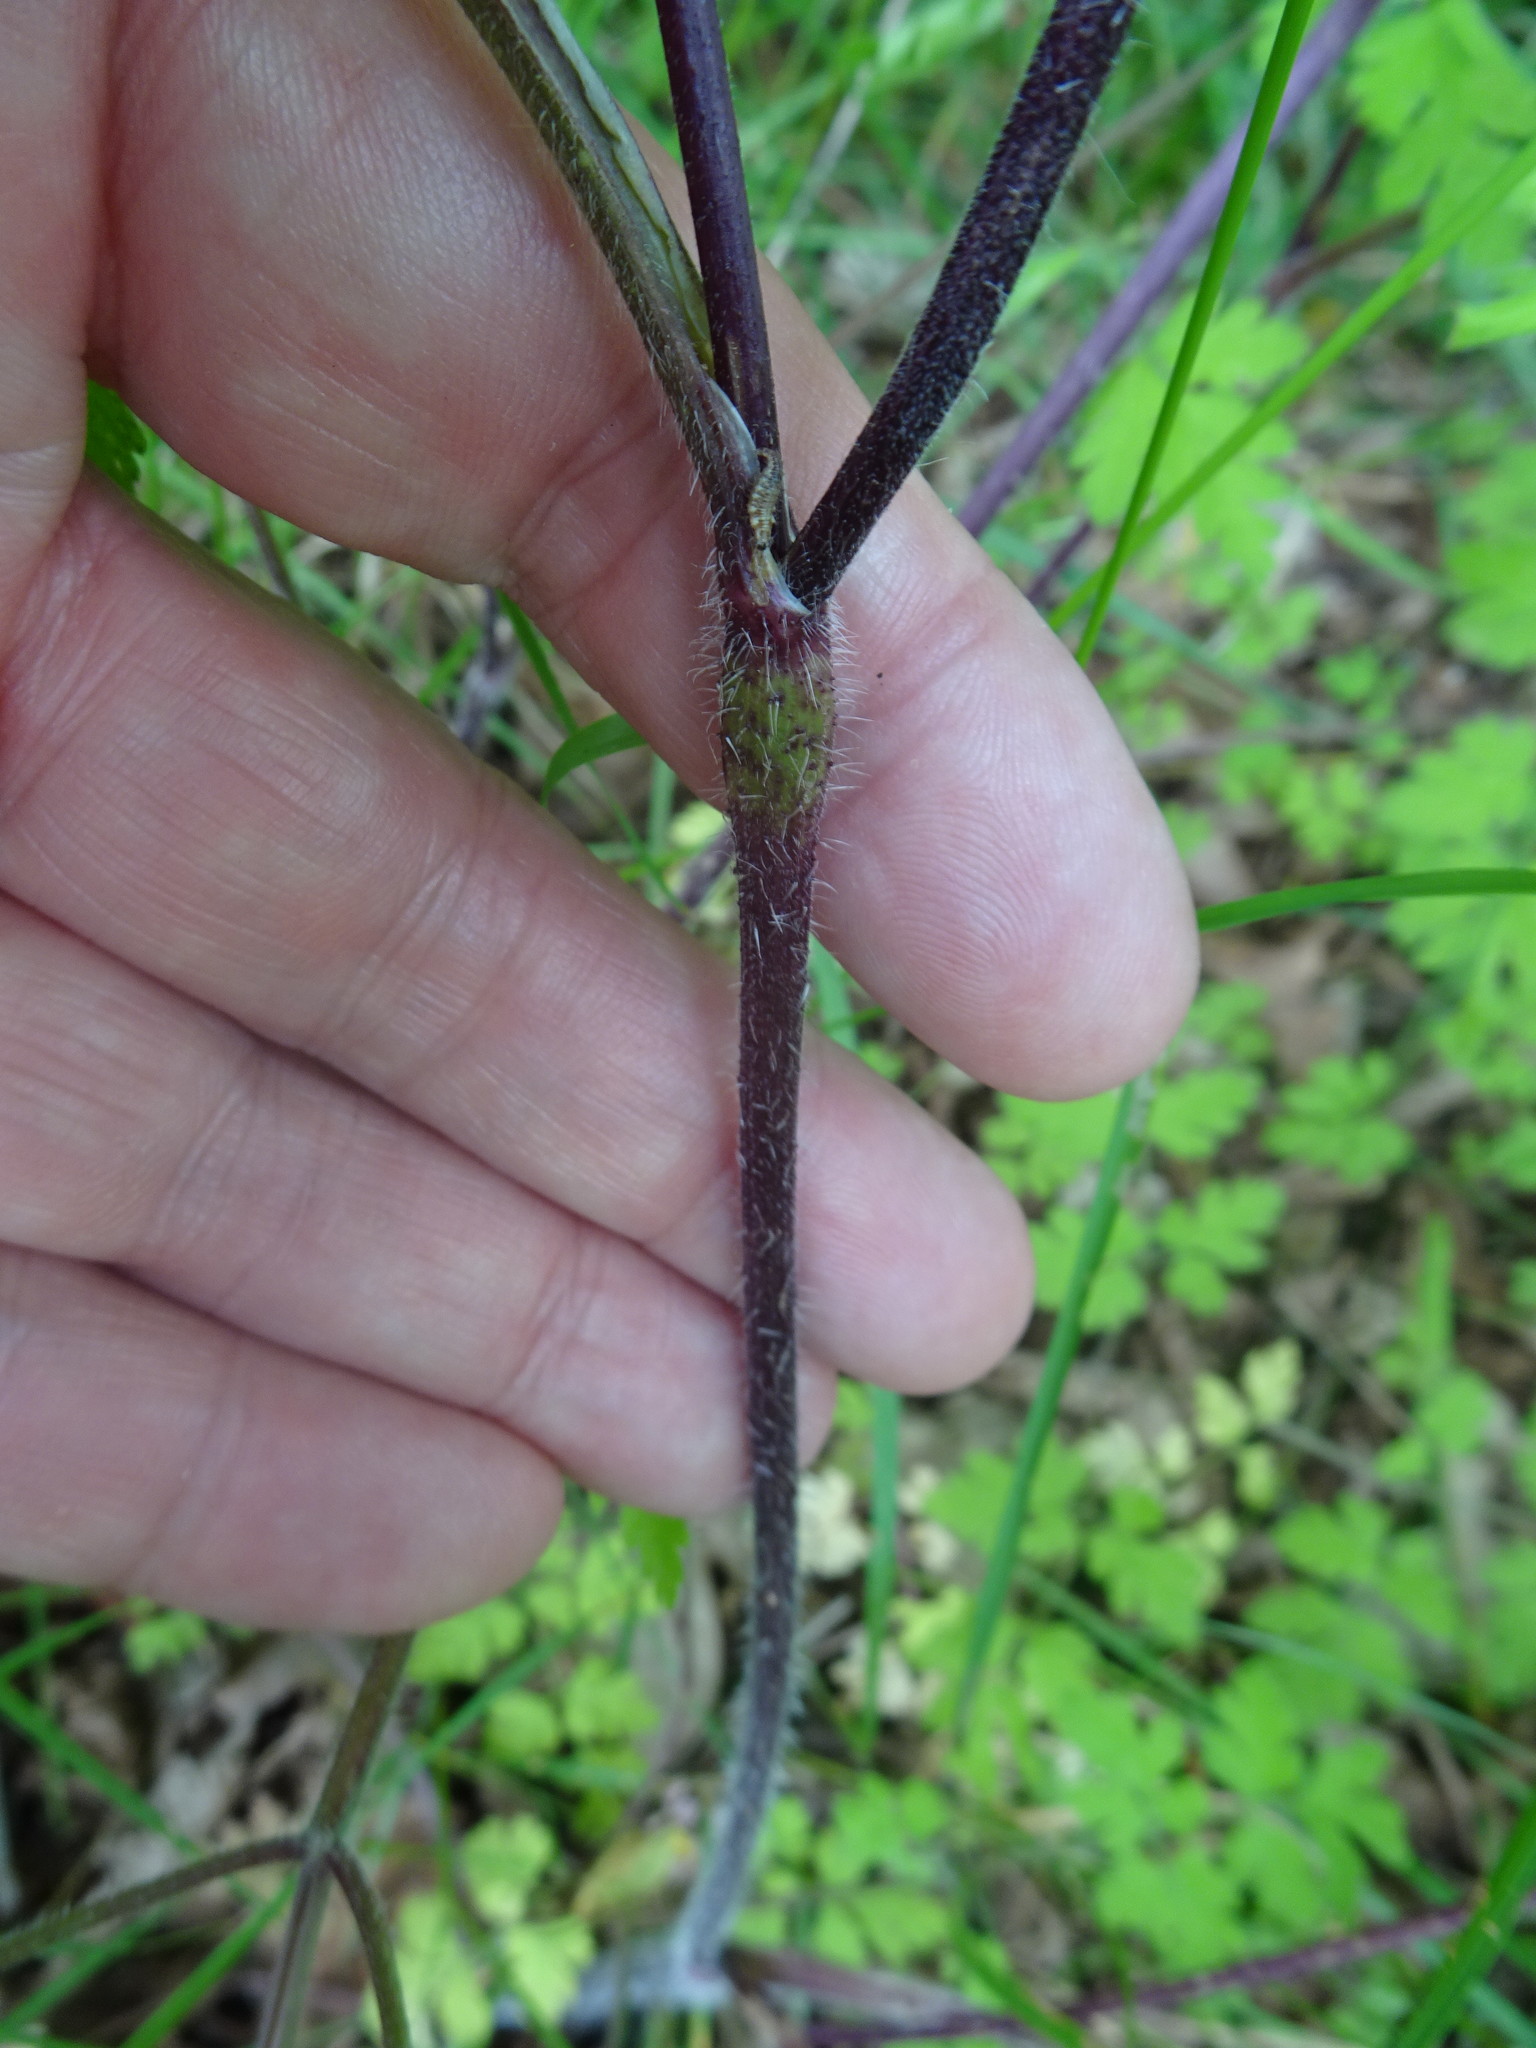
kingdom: Plantae
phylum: Tracheophyta
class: Magnoliopsida
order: Apiales
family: Apiaceae
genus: Chaerophyllum
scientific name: Chaerophyllum temulum
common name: Rough chervil
